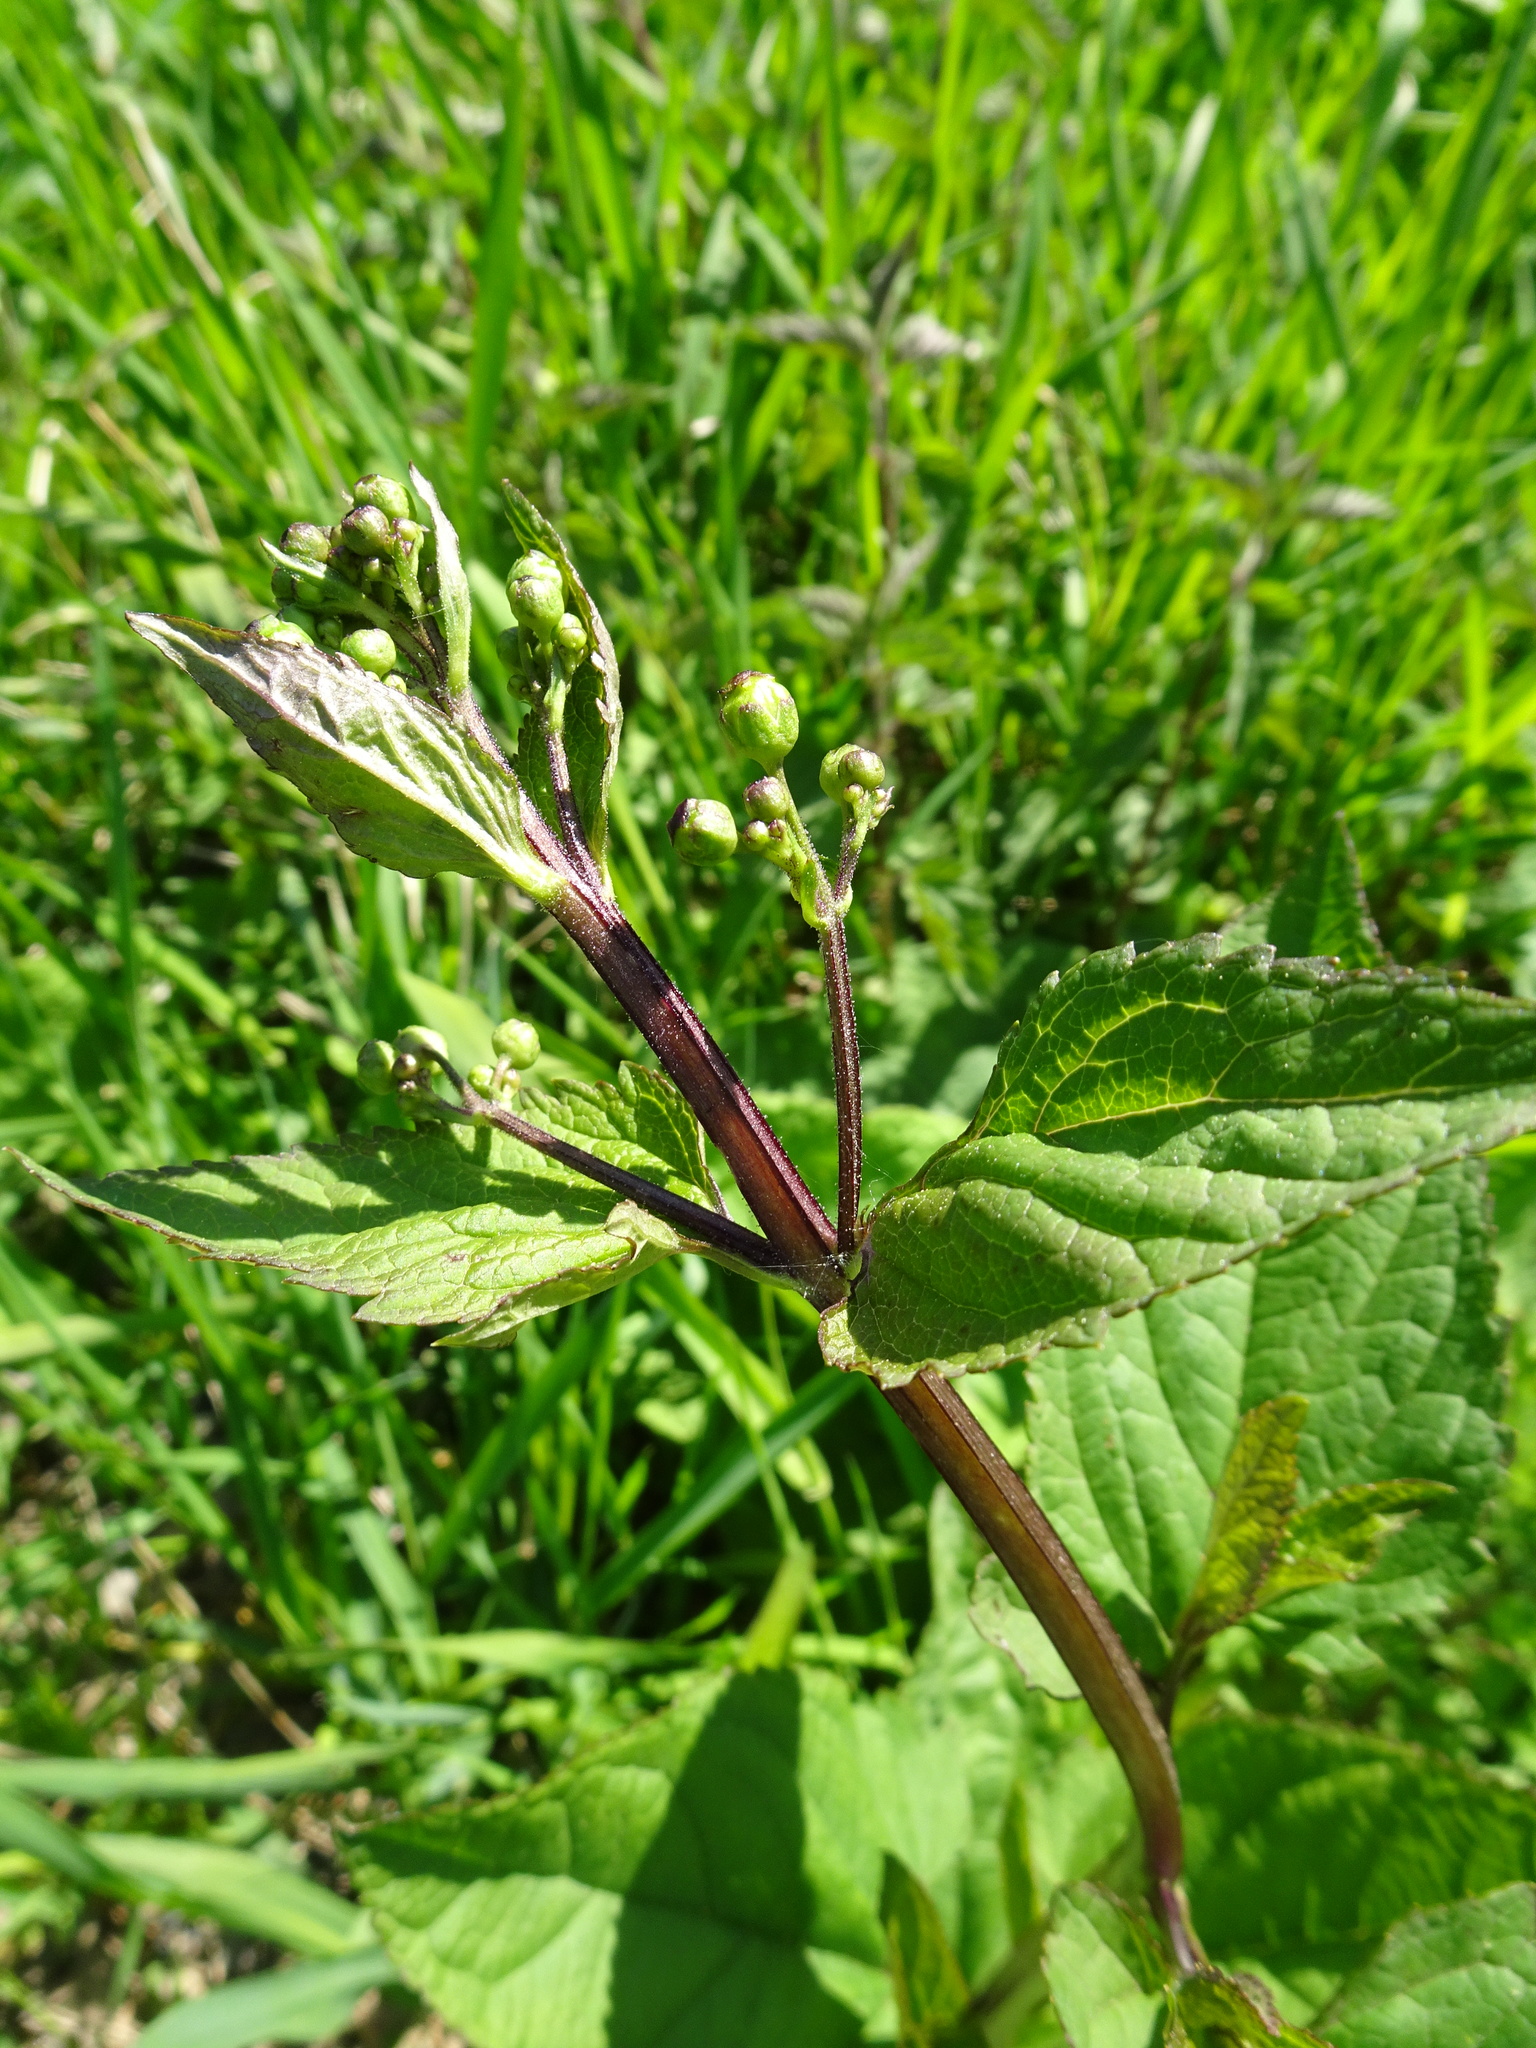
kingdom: Plantae
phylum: Tracheophyta
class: Magnoliopsida
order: Lamiales
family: Scrophulariaceae
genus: Scrophularia
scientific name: Scrophularia nodosa
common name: Common figwort
